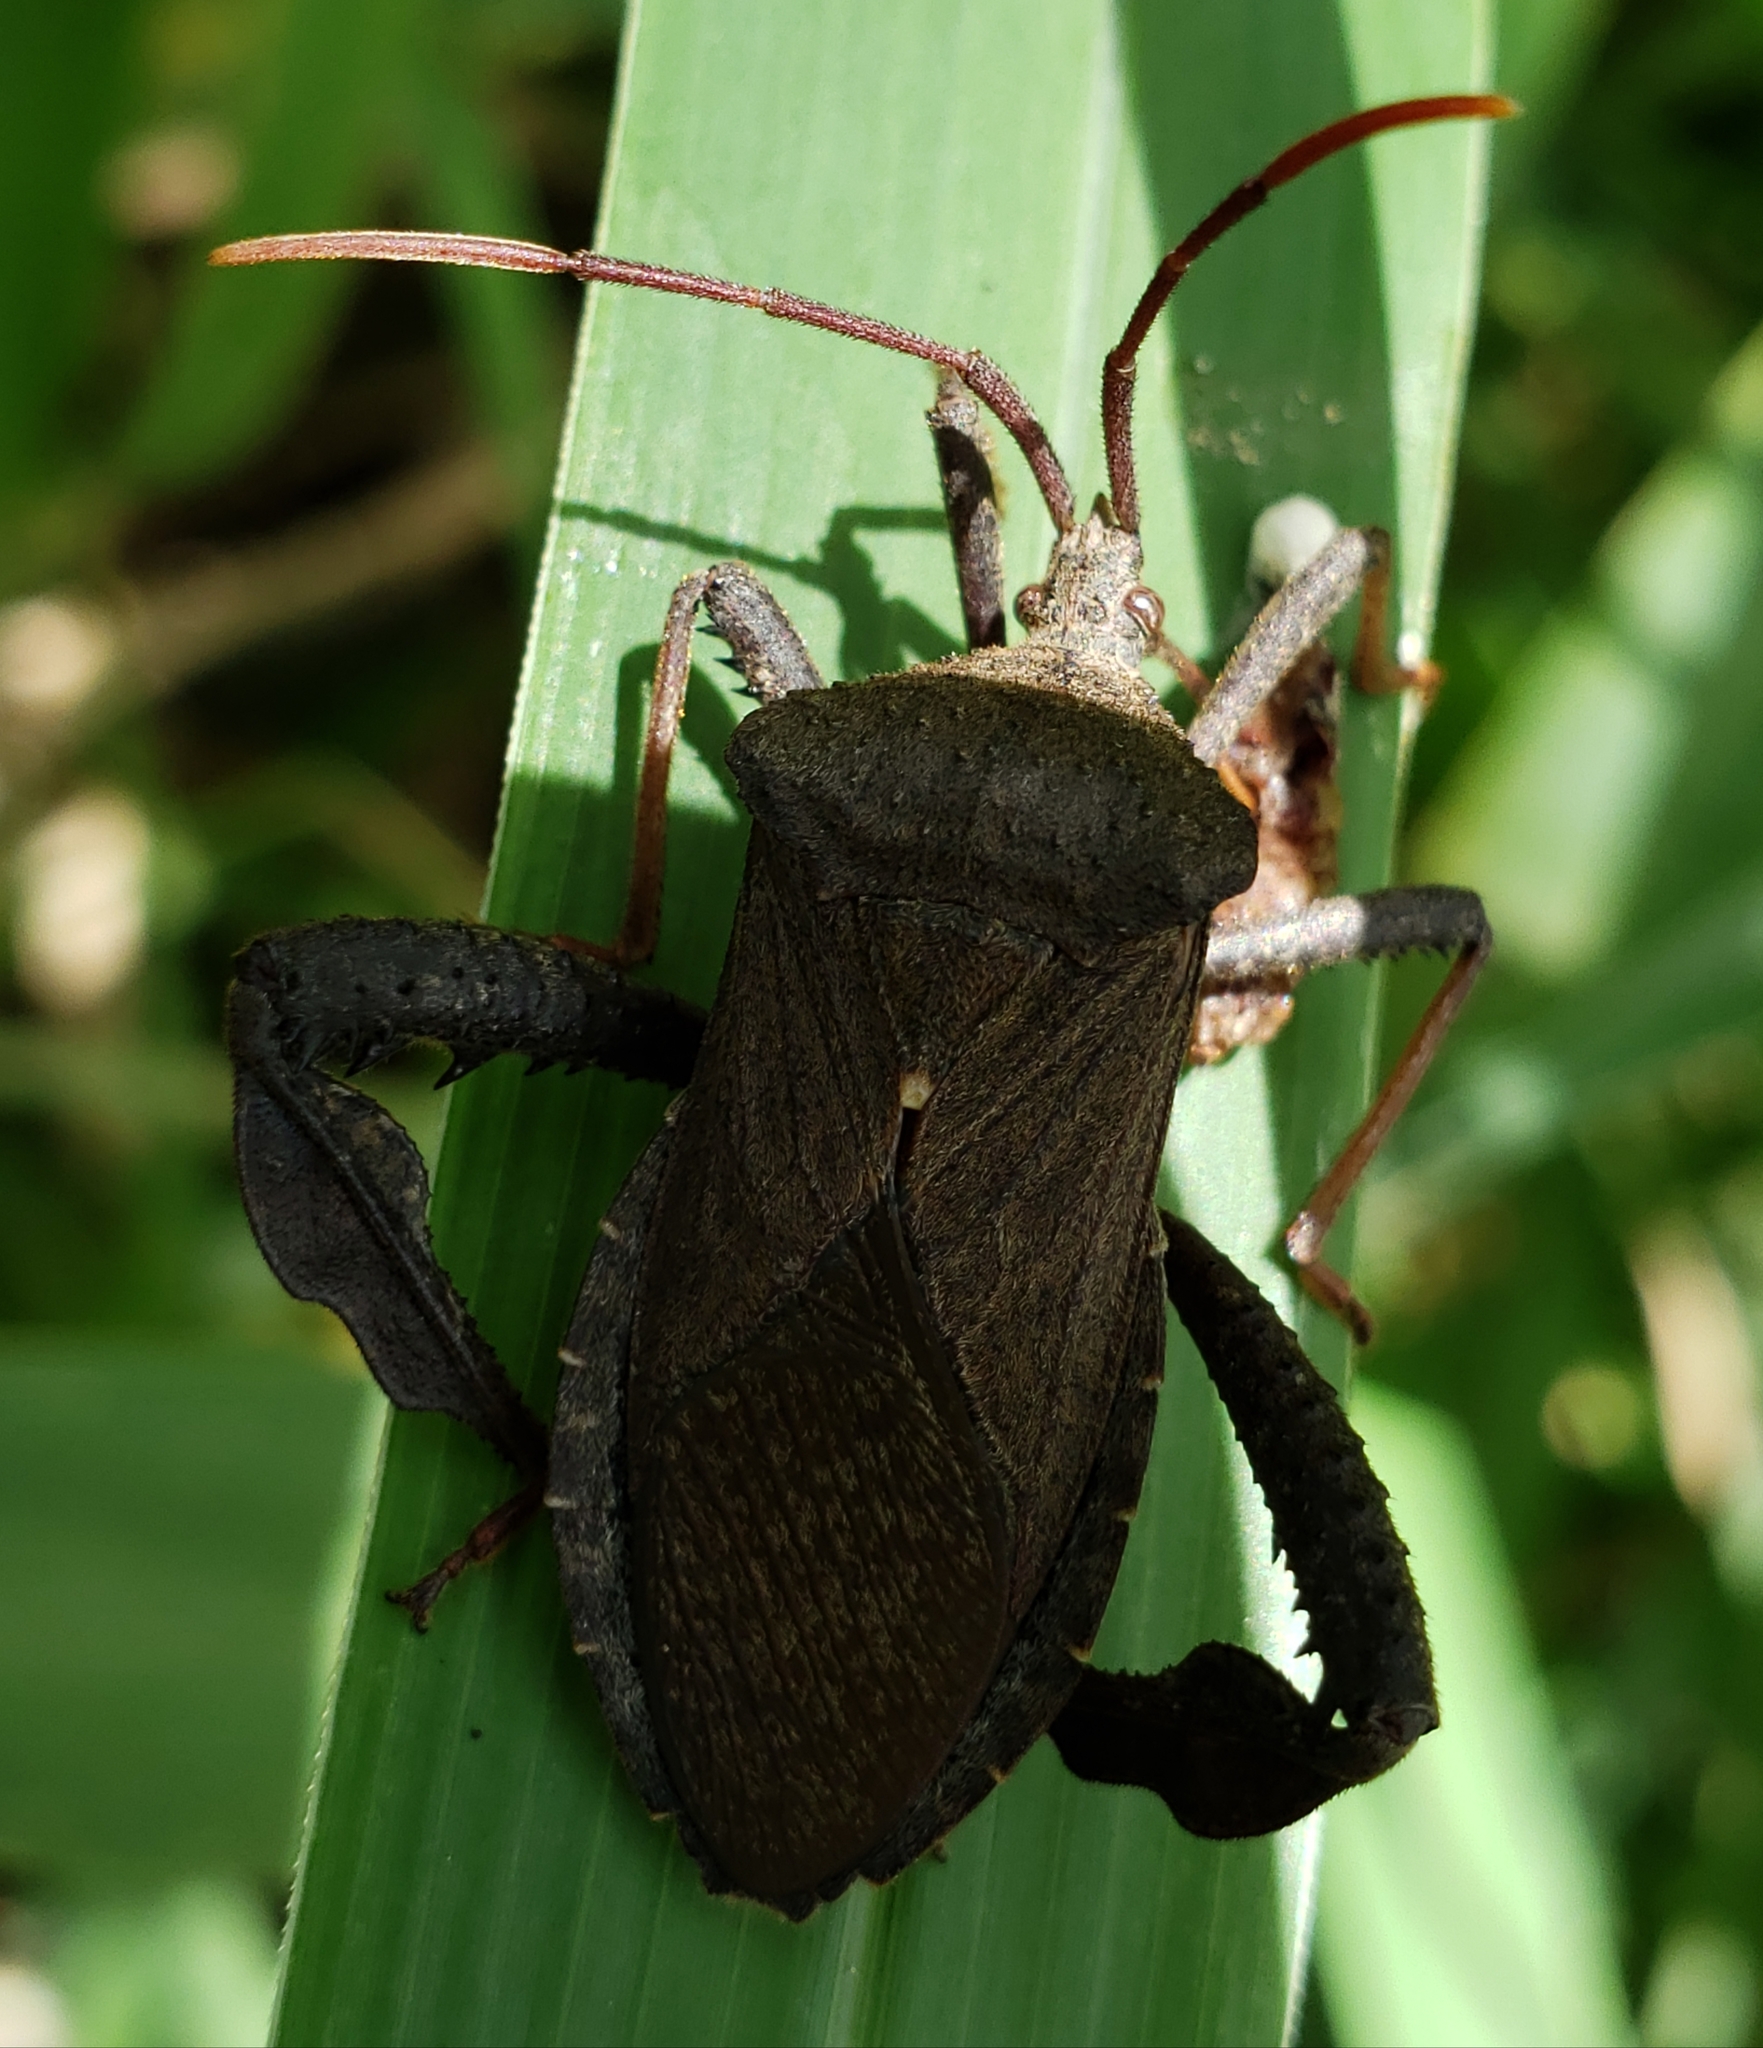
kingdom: Animalia
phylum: Arthropoda
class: Insecta
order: Hemiptera
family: Coreidae
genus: Acanthocephala
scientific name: Acanthocephala femorata
